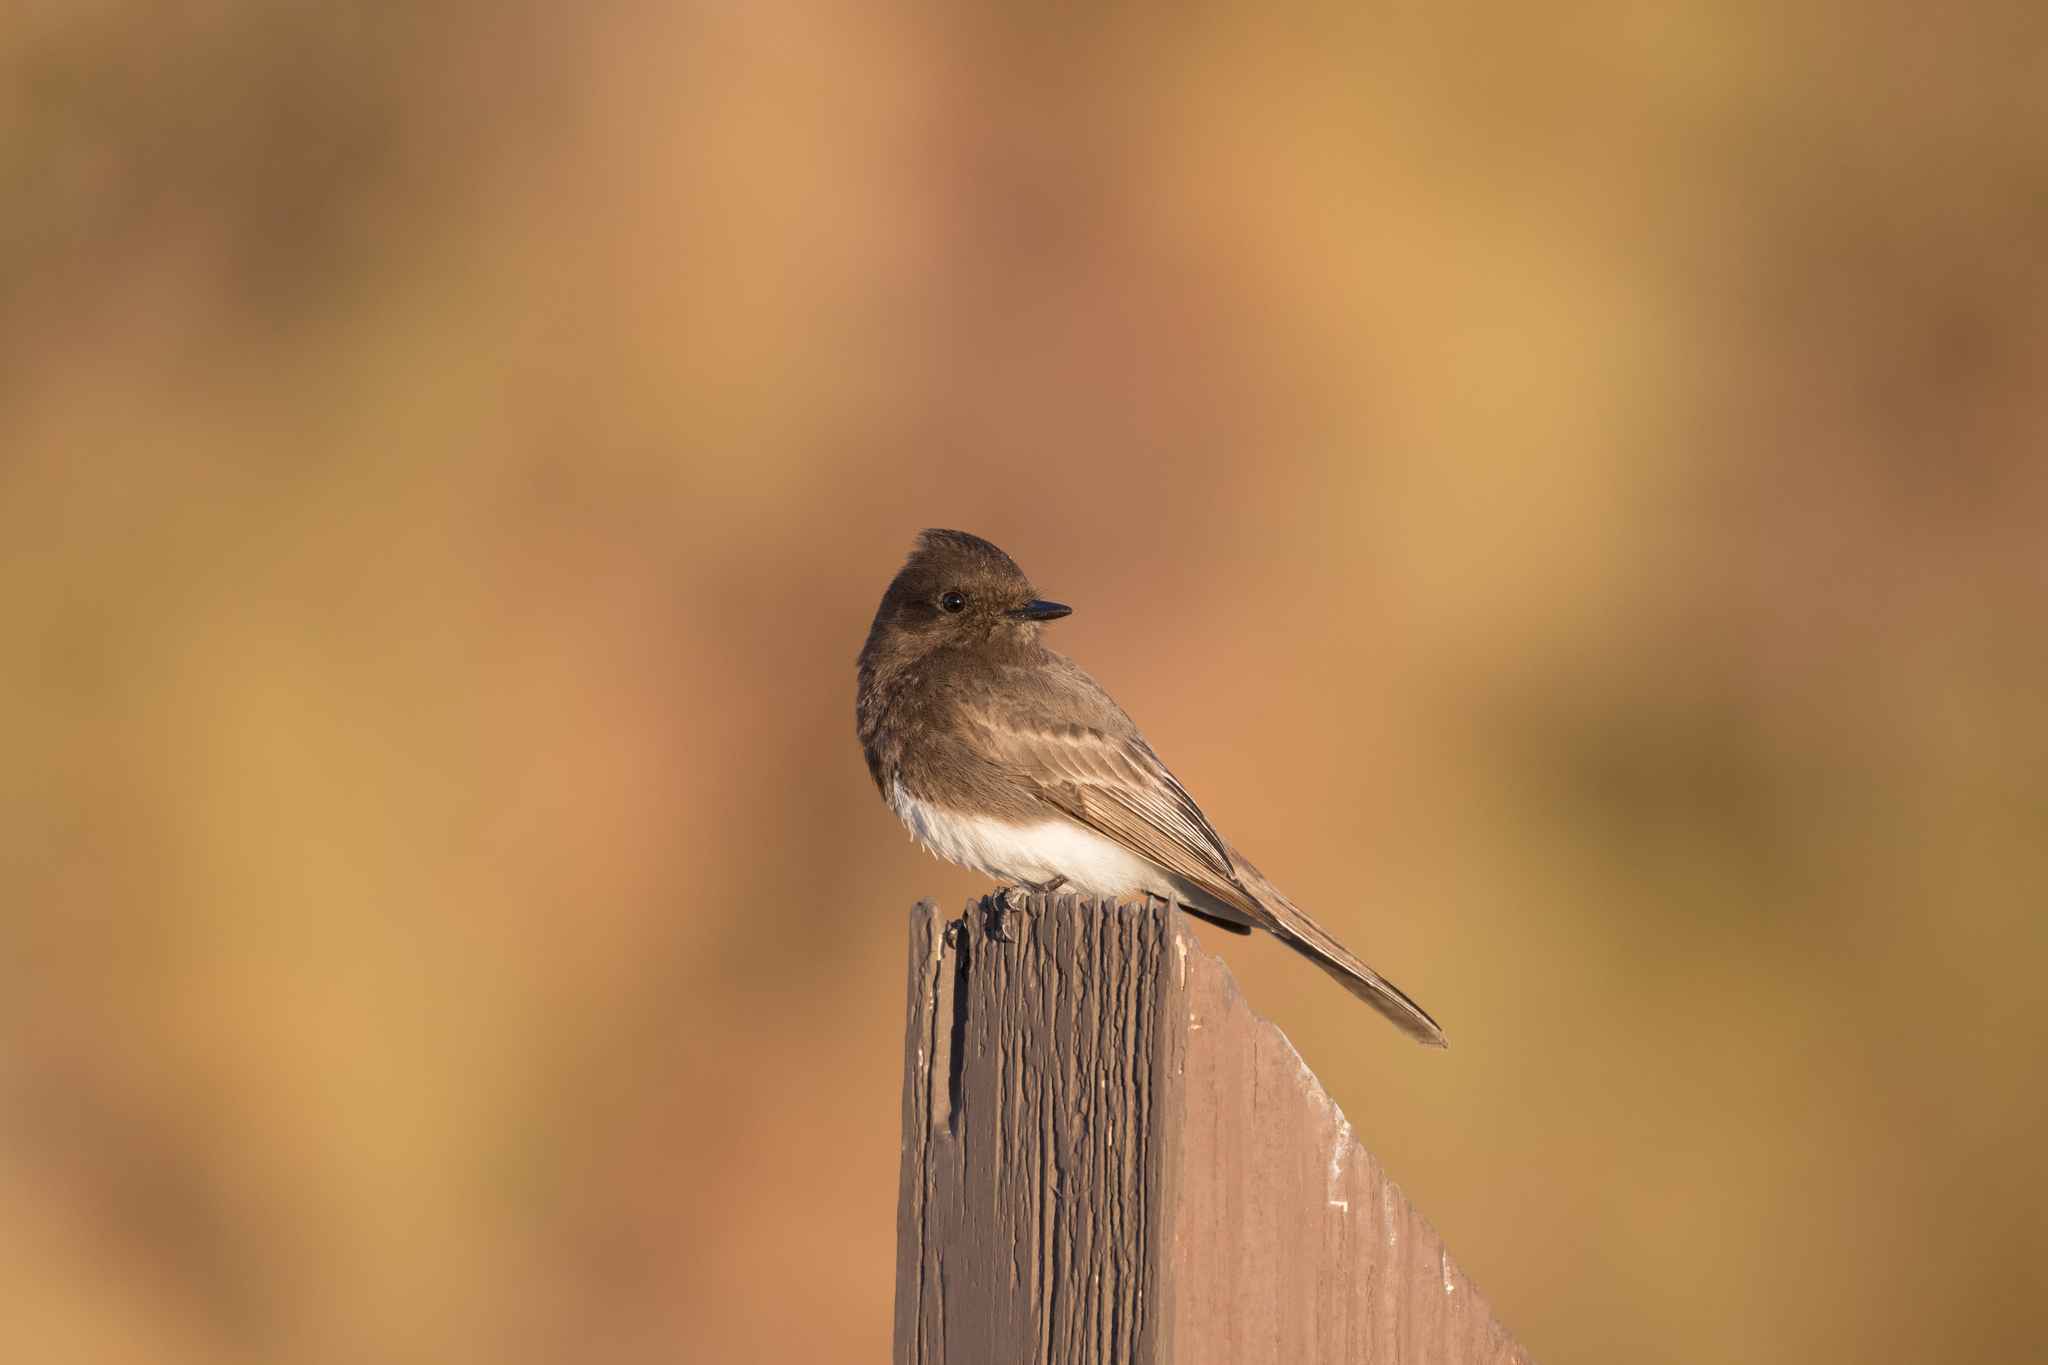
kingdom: Animalia
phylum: Chordata
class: Aves
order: Passeriformes
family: Tyrannidae
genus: Sayornis
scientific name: Sayornis nigricans
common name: Black phoebe
